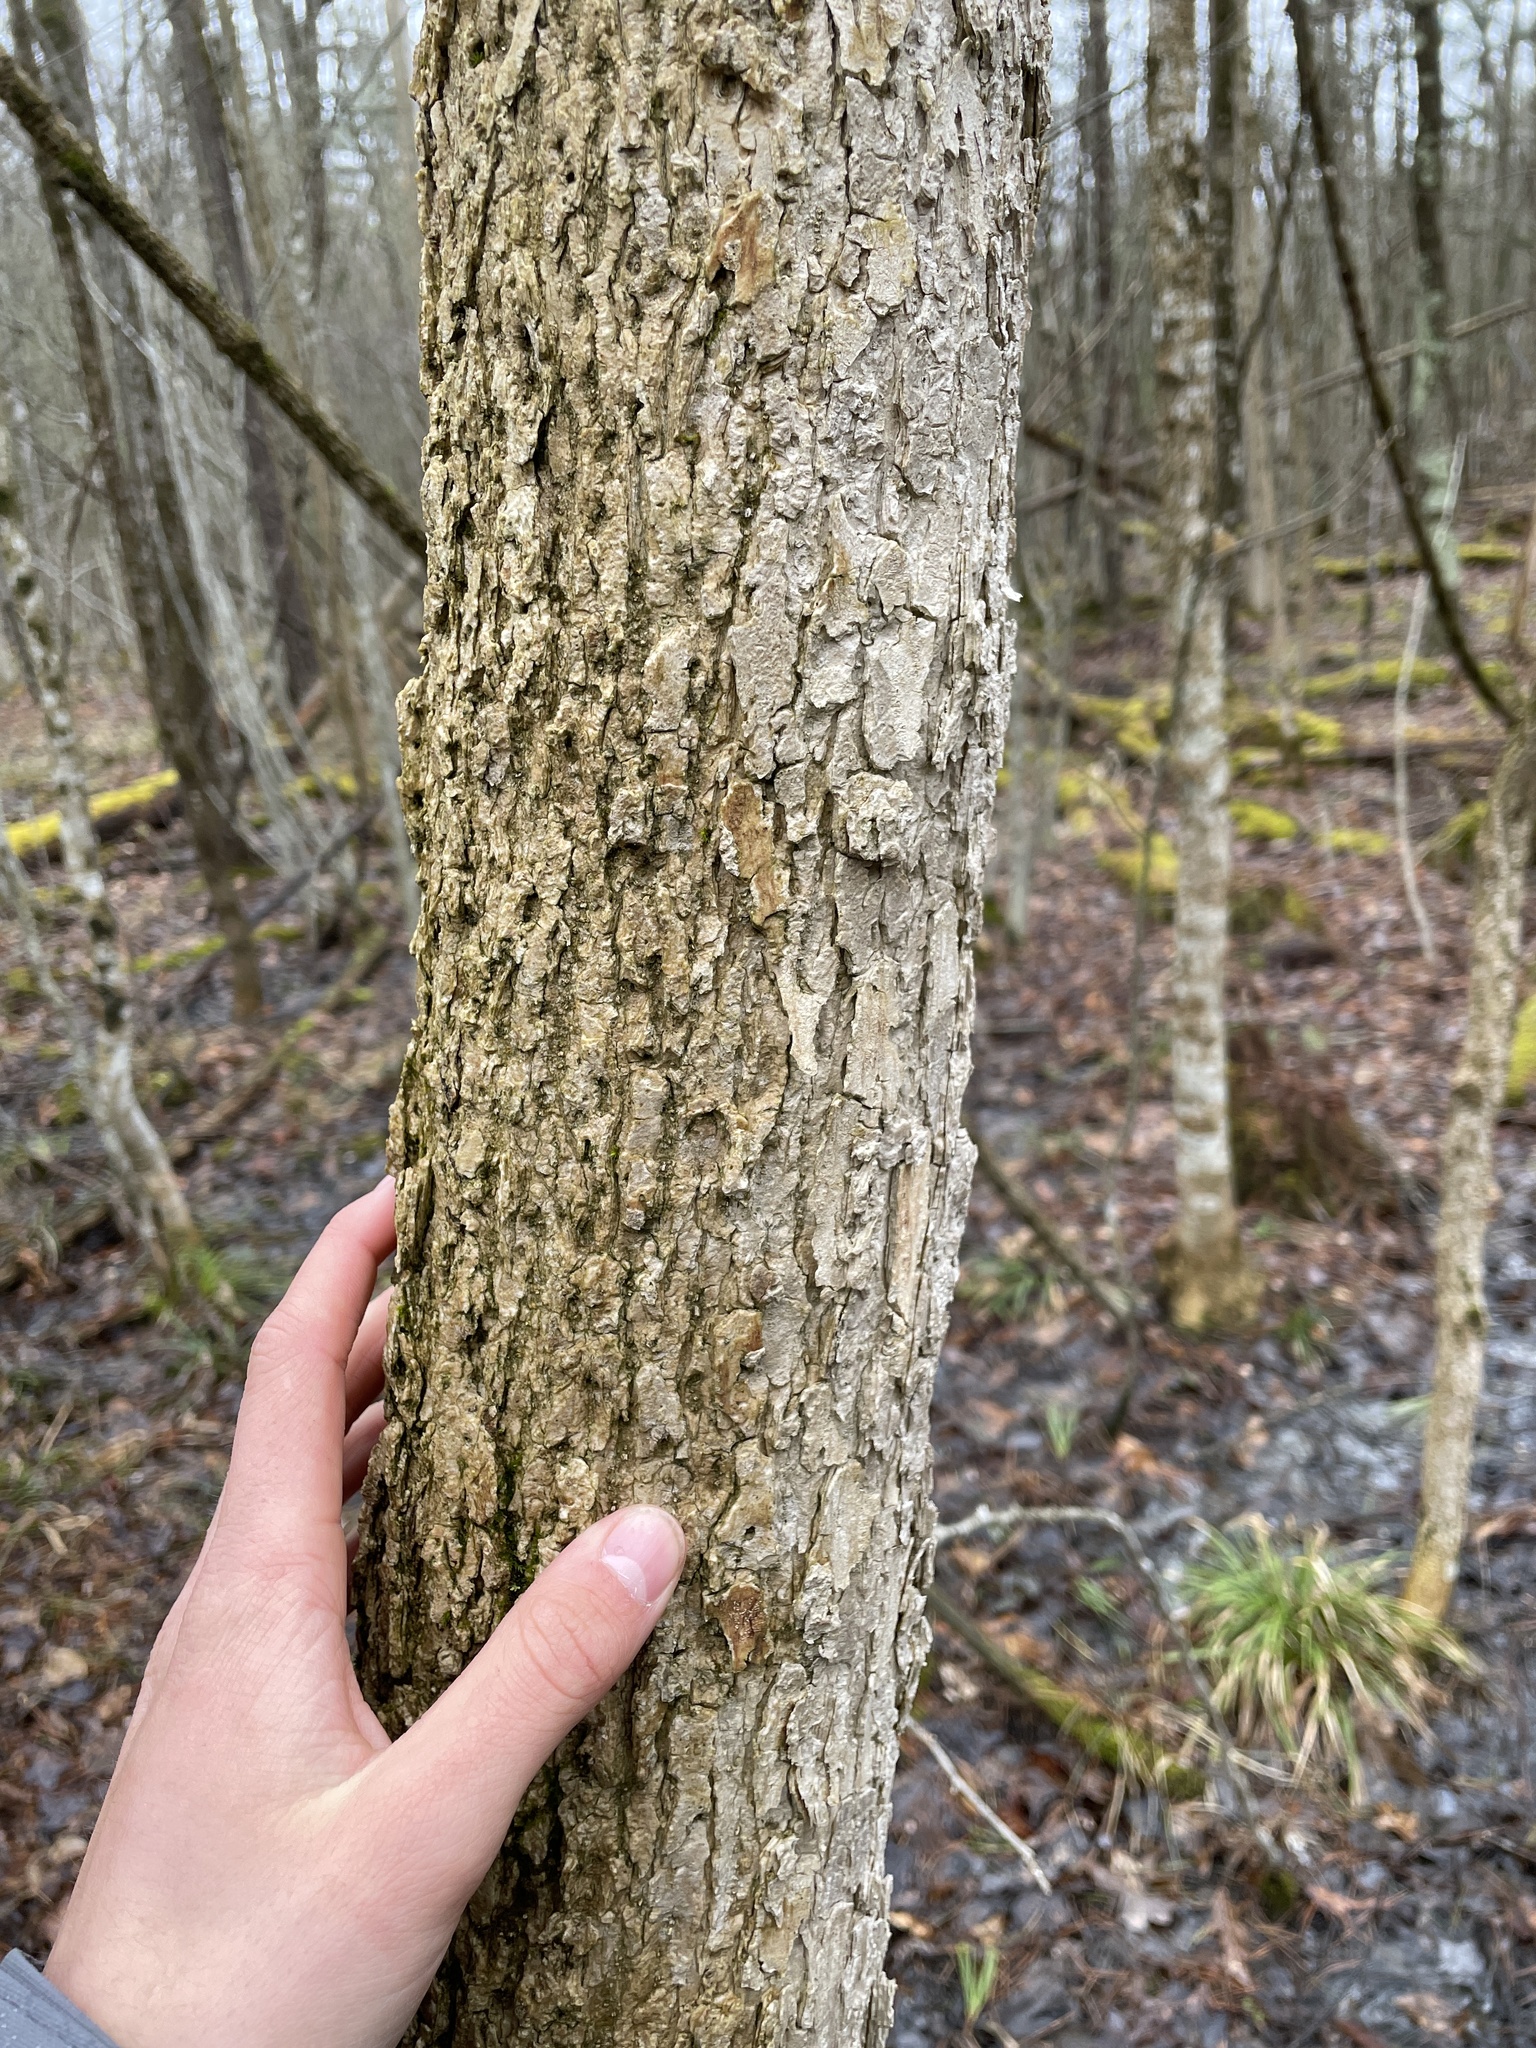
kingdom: Plantae
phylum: Tracheophyta
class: Magnoliopsida
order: Lamiales
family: Oleaceae
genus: Fraxinus
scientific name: Fraxinus nigra
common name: Black ash
